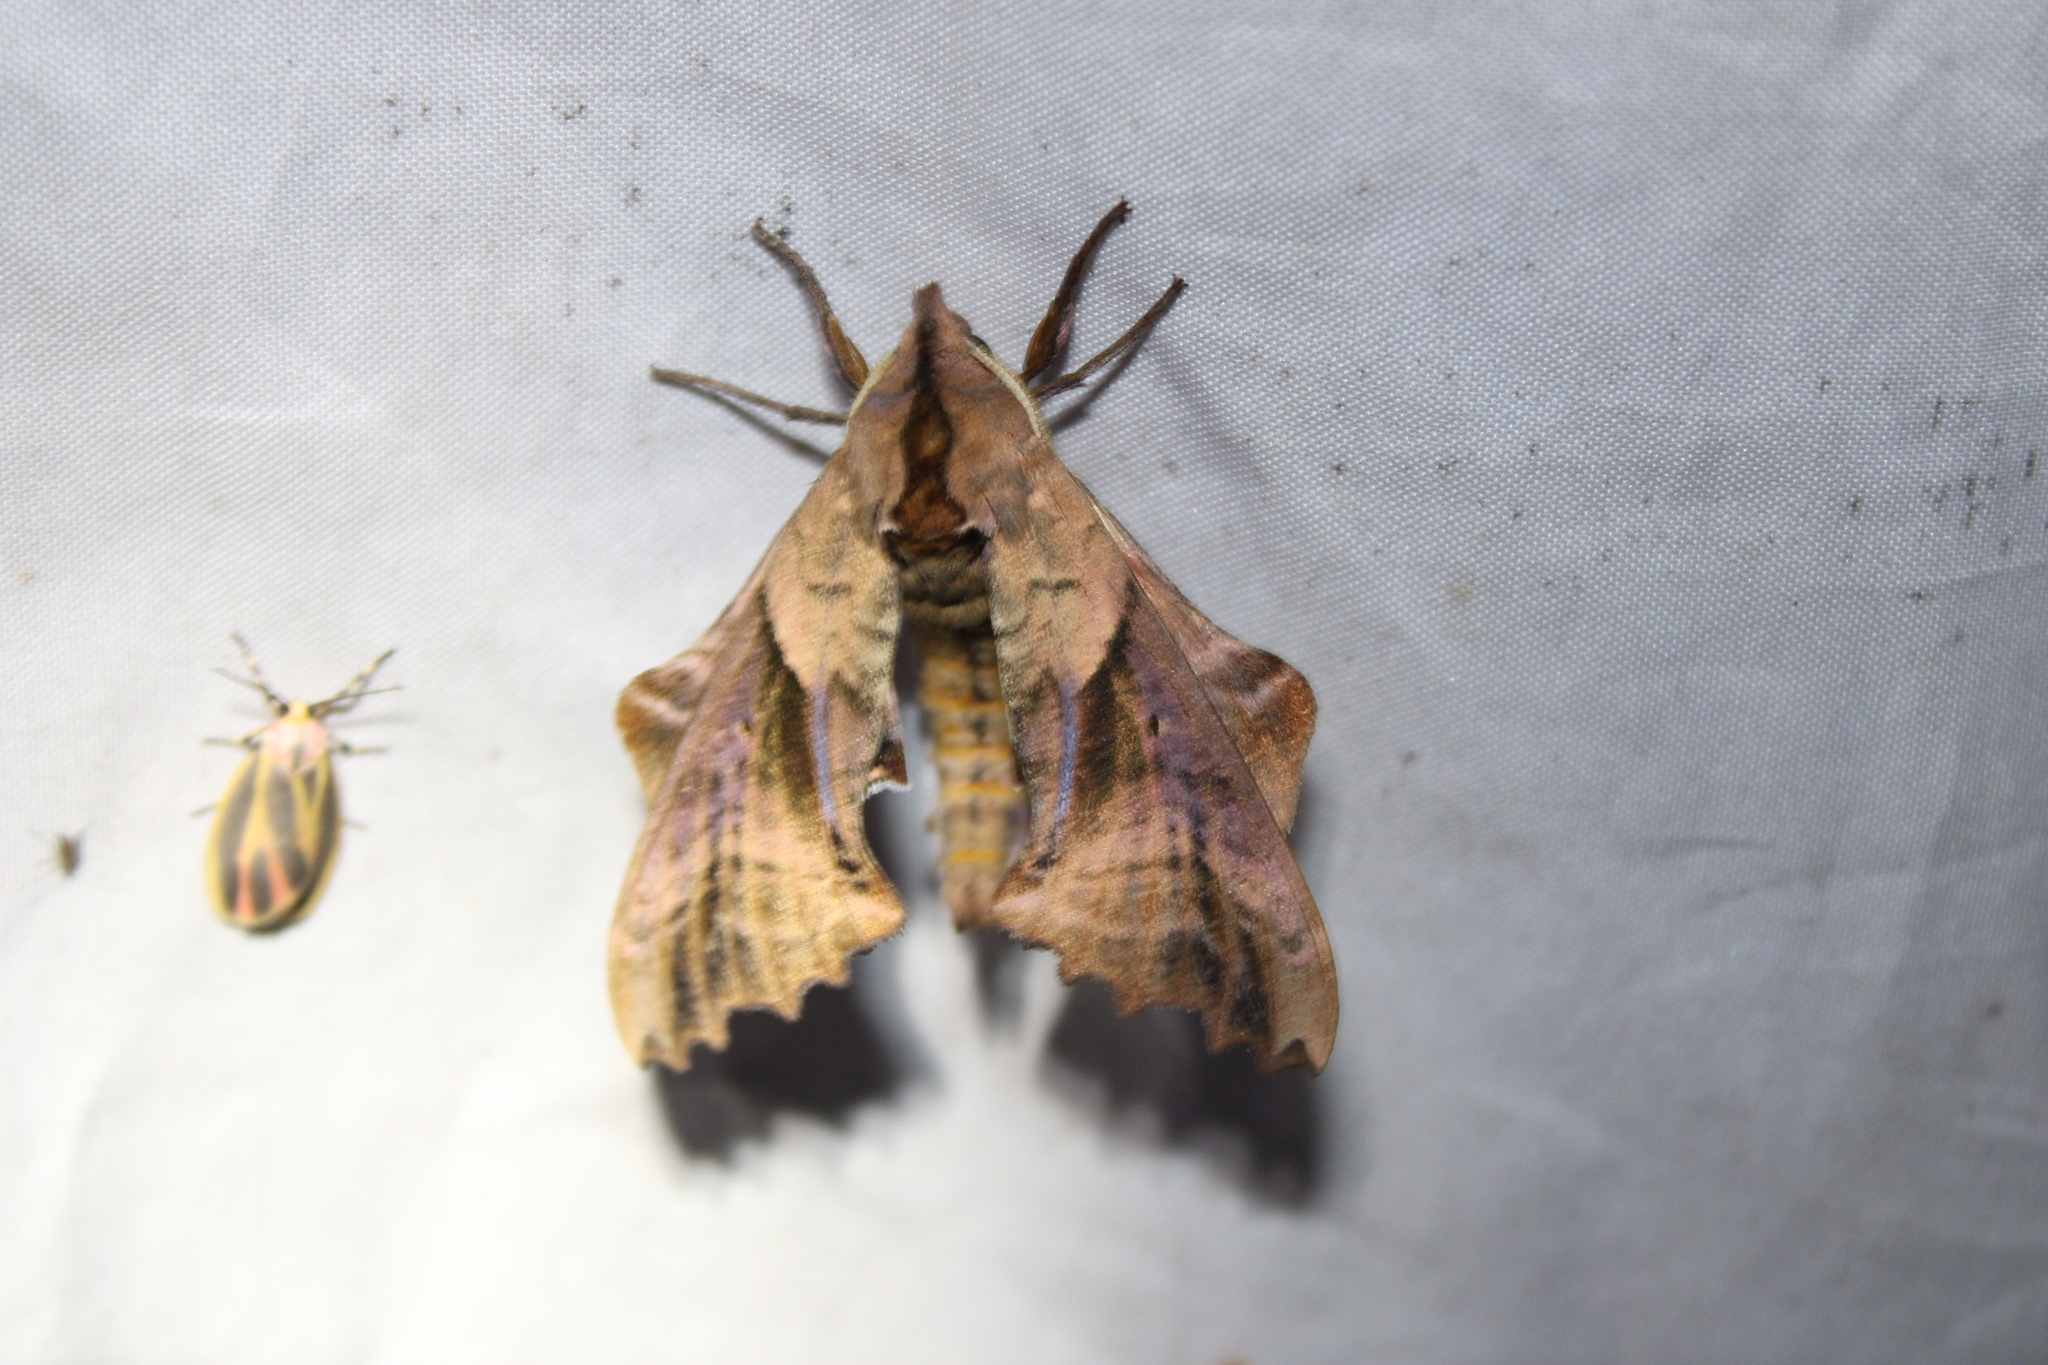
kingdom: Animalia
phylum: Arthropoda
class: Insecta
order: Lepidoptera
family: Sphingidae
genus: Paonias
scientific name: Paonias excaecata
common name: Blind-eyed sphinx
